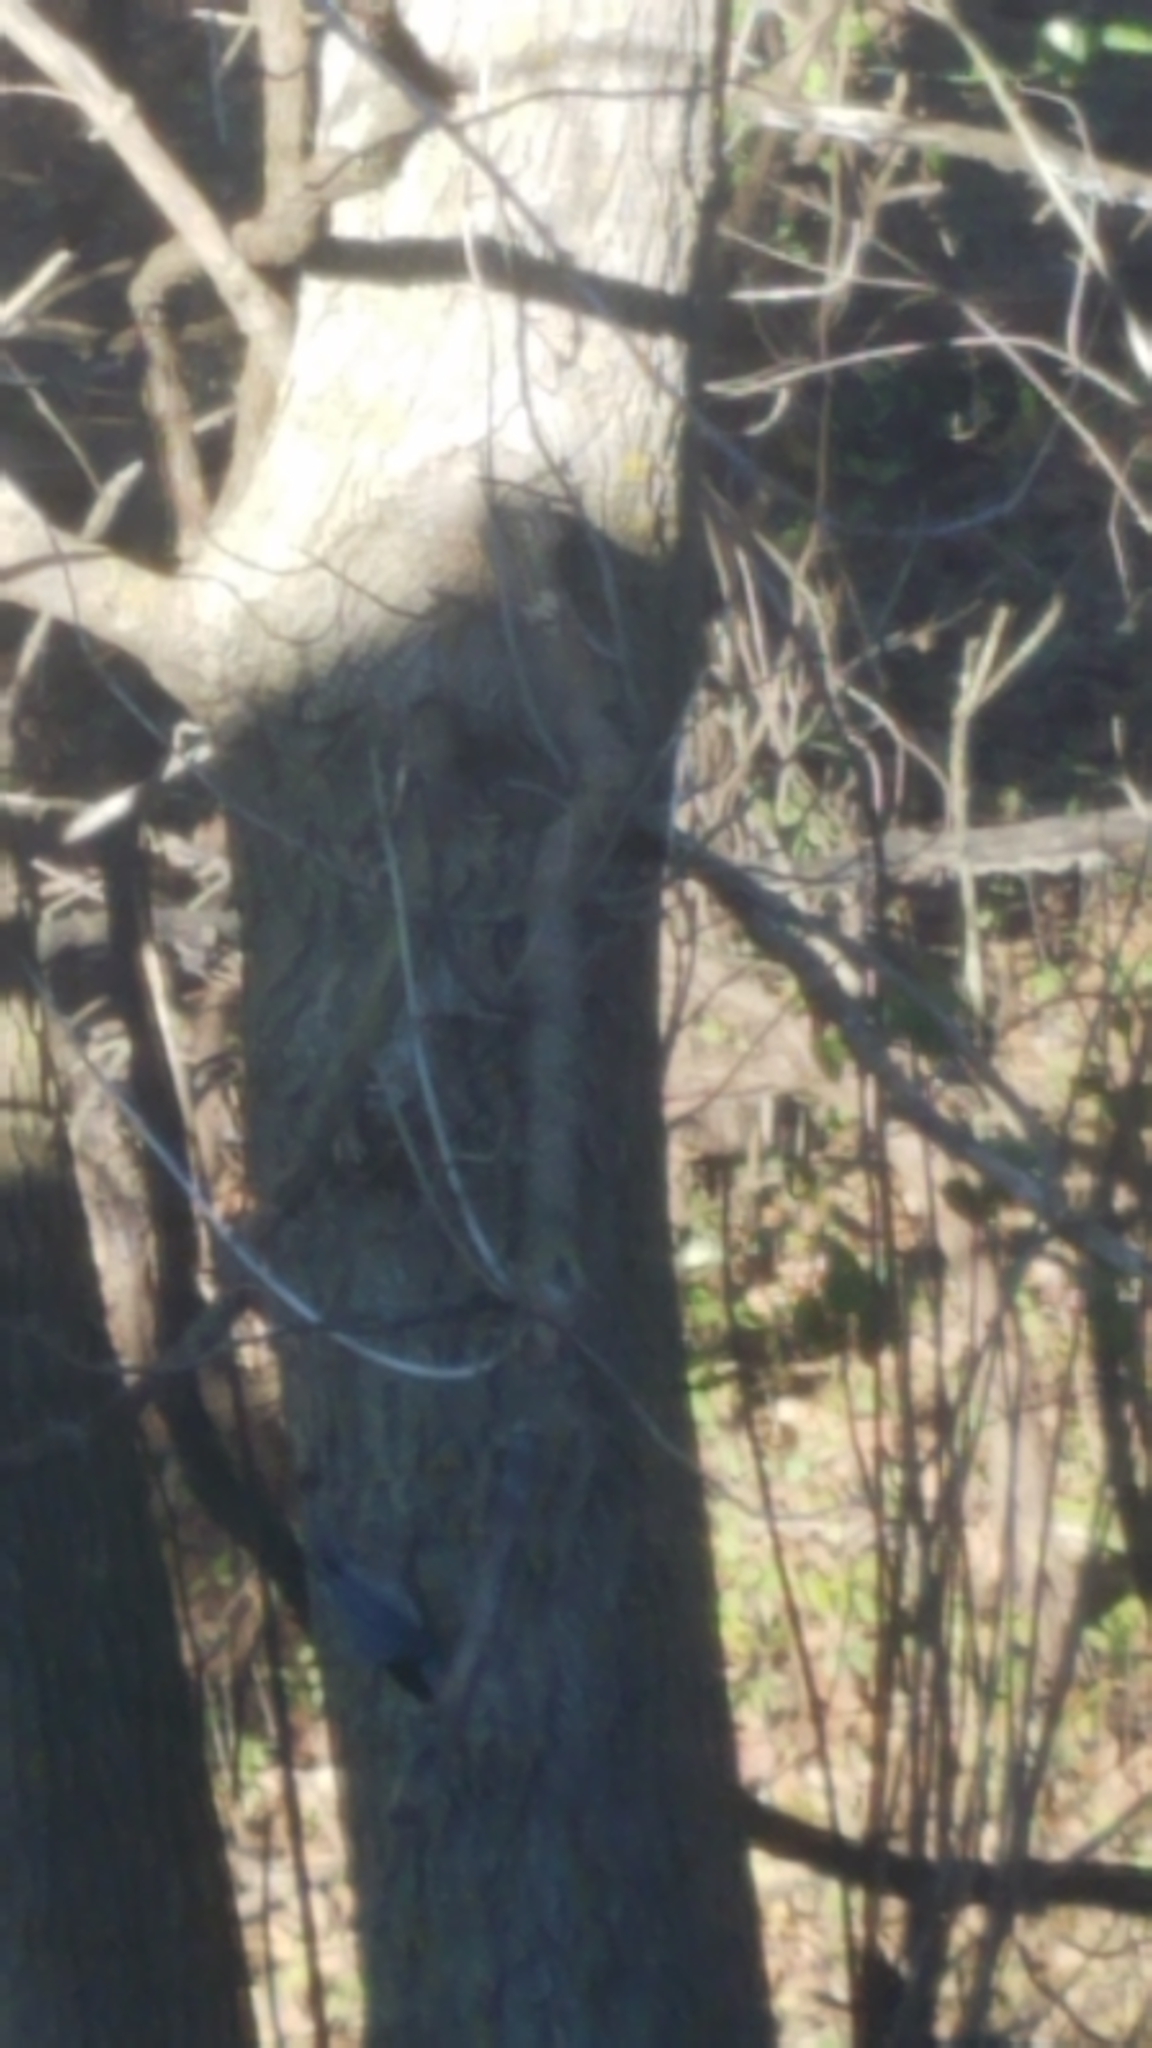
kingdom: Animalia
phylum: Chordata
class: Aves
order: Passeriformes
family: Sittidae
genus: Sitta
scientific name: Sitta carolinensis
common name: White-breasted nuthatch
